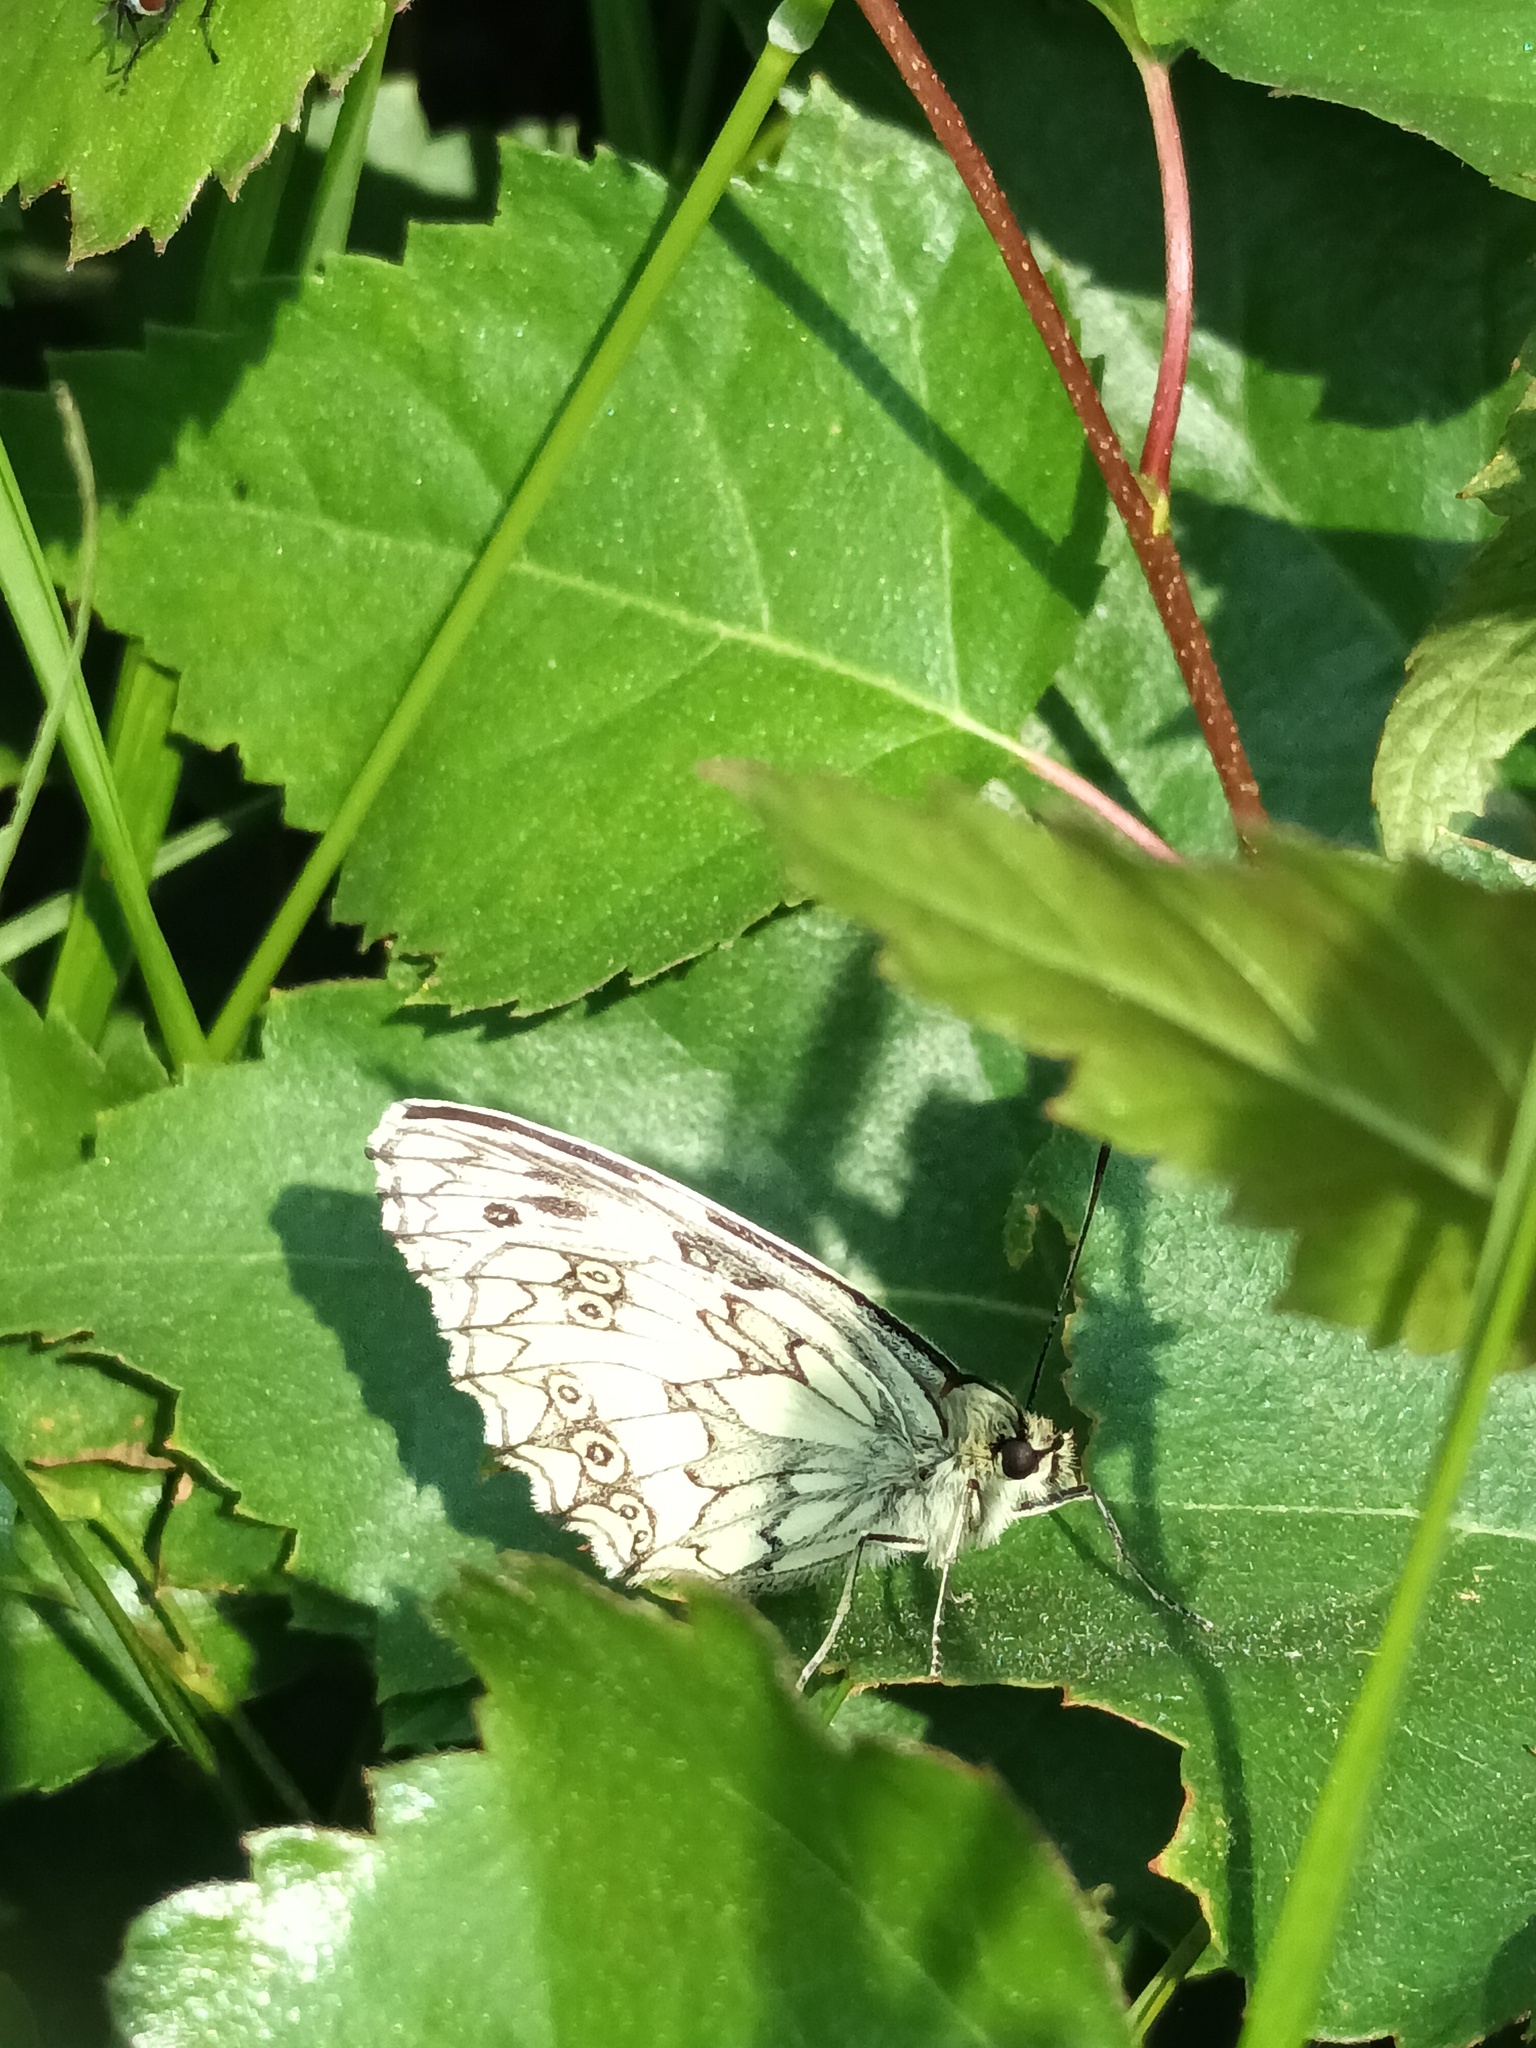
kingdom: Animalia
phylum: Arthropoda
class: Insecta
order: Lepidoptera
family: Nymphalidae
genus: Melanargia
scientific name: Melanargia galathea
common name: Marbled white
